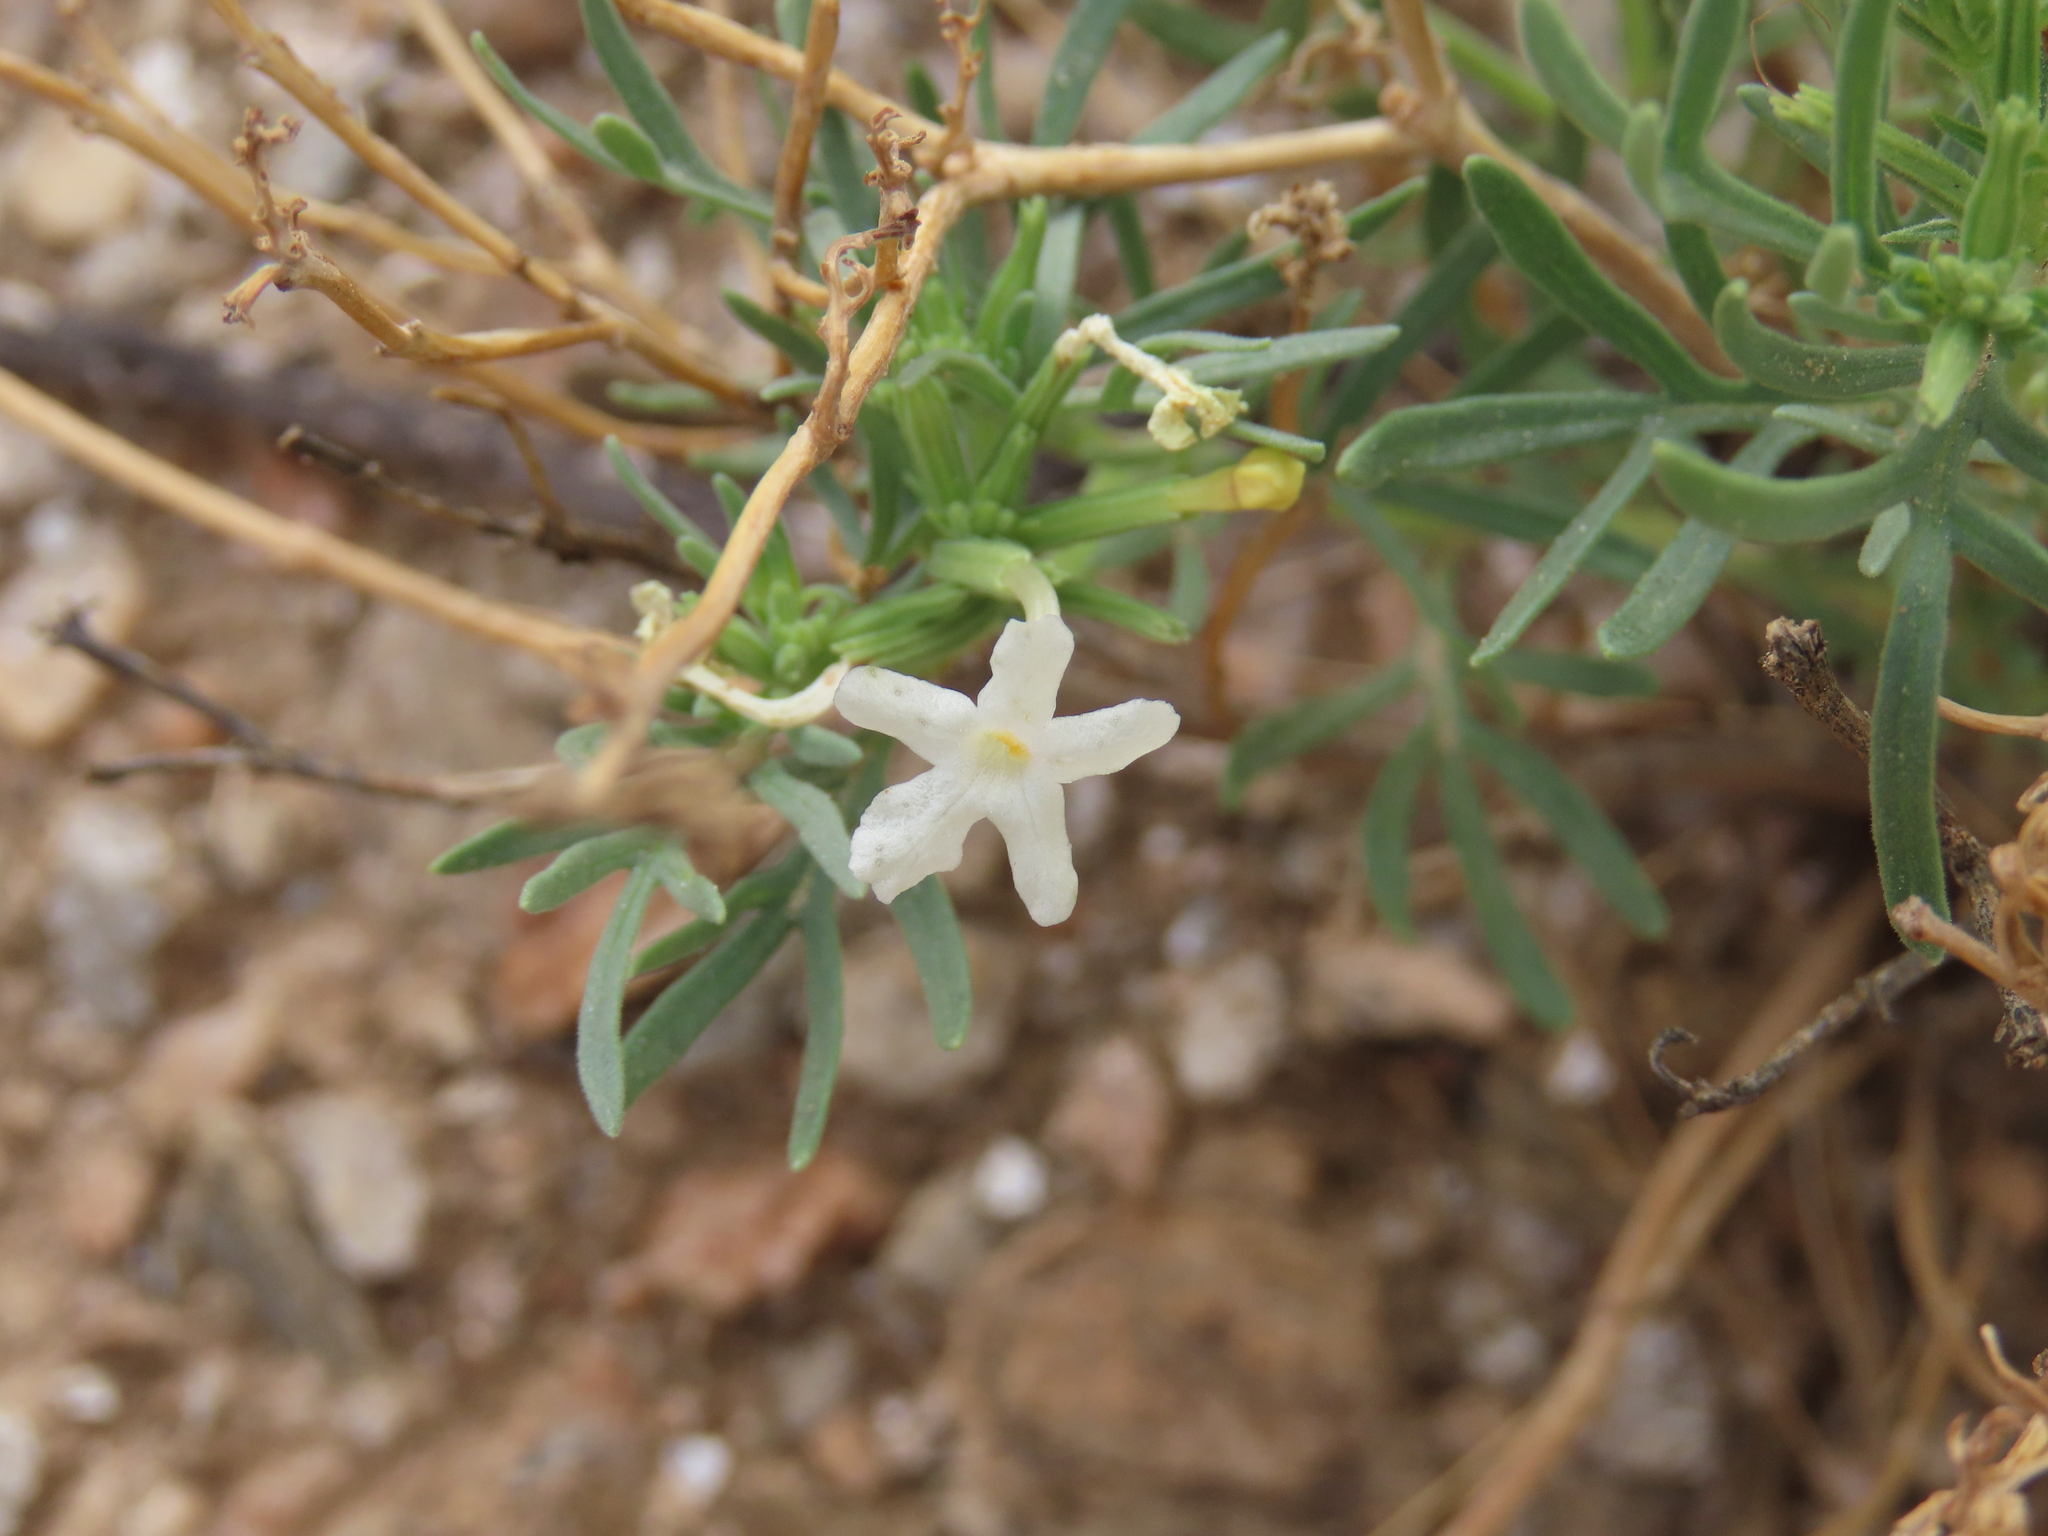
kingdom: Plantae
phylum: Tracheophyta
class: Magnoliopsida
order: Lamiales
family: Verbenaceae
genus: Chascanum
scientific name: Chascanum pinnatifidum
